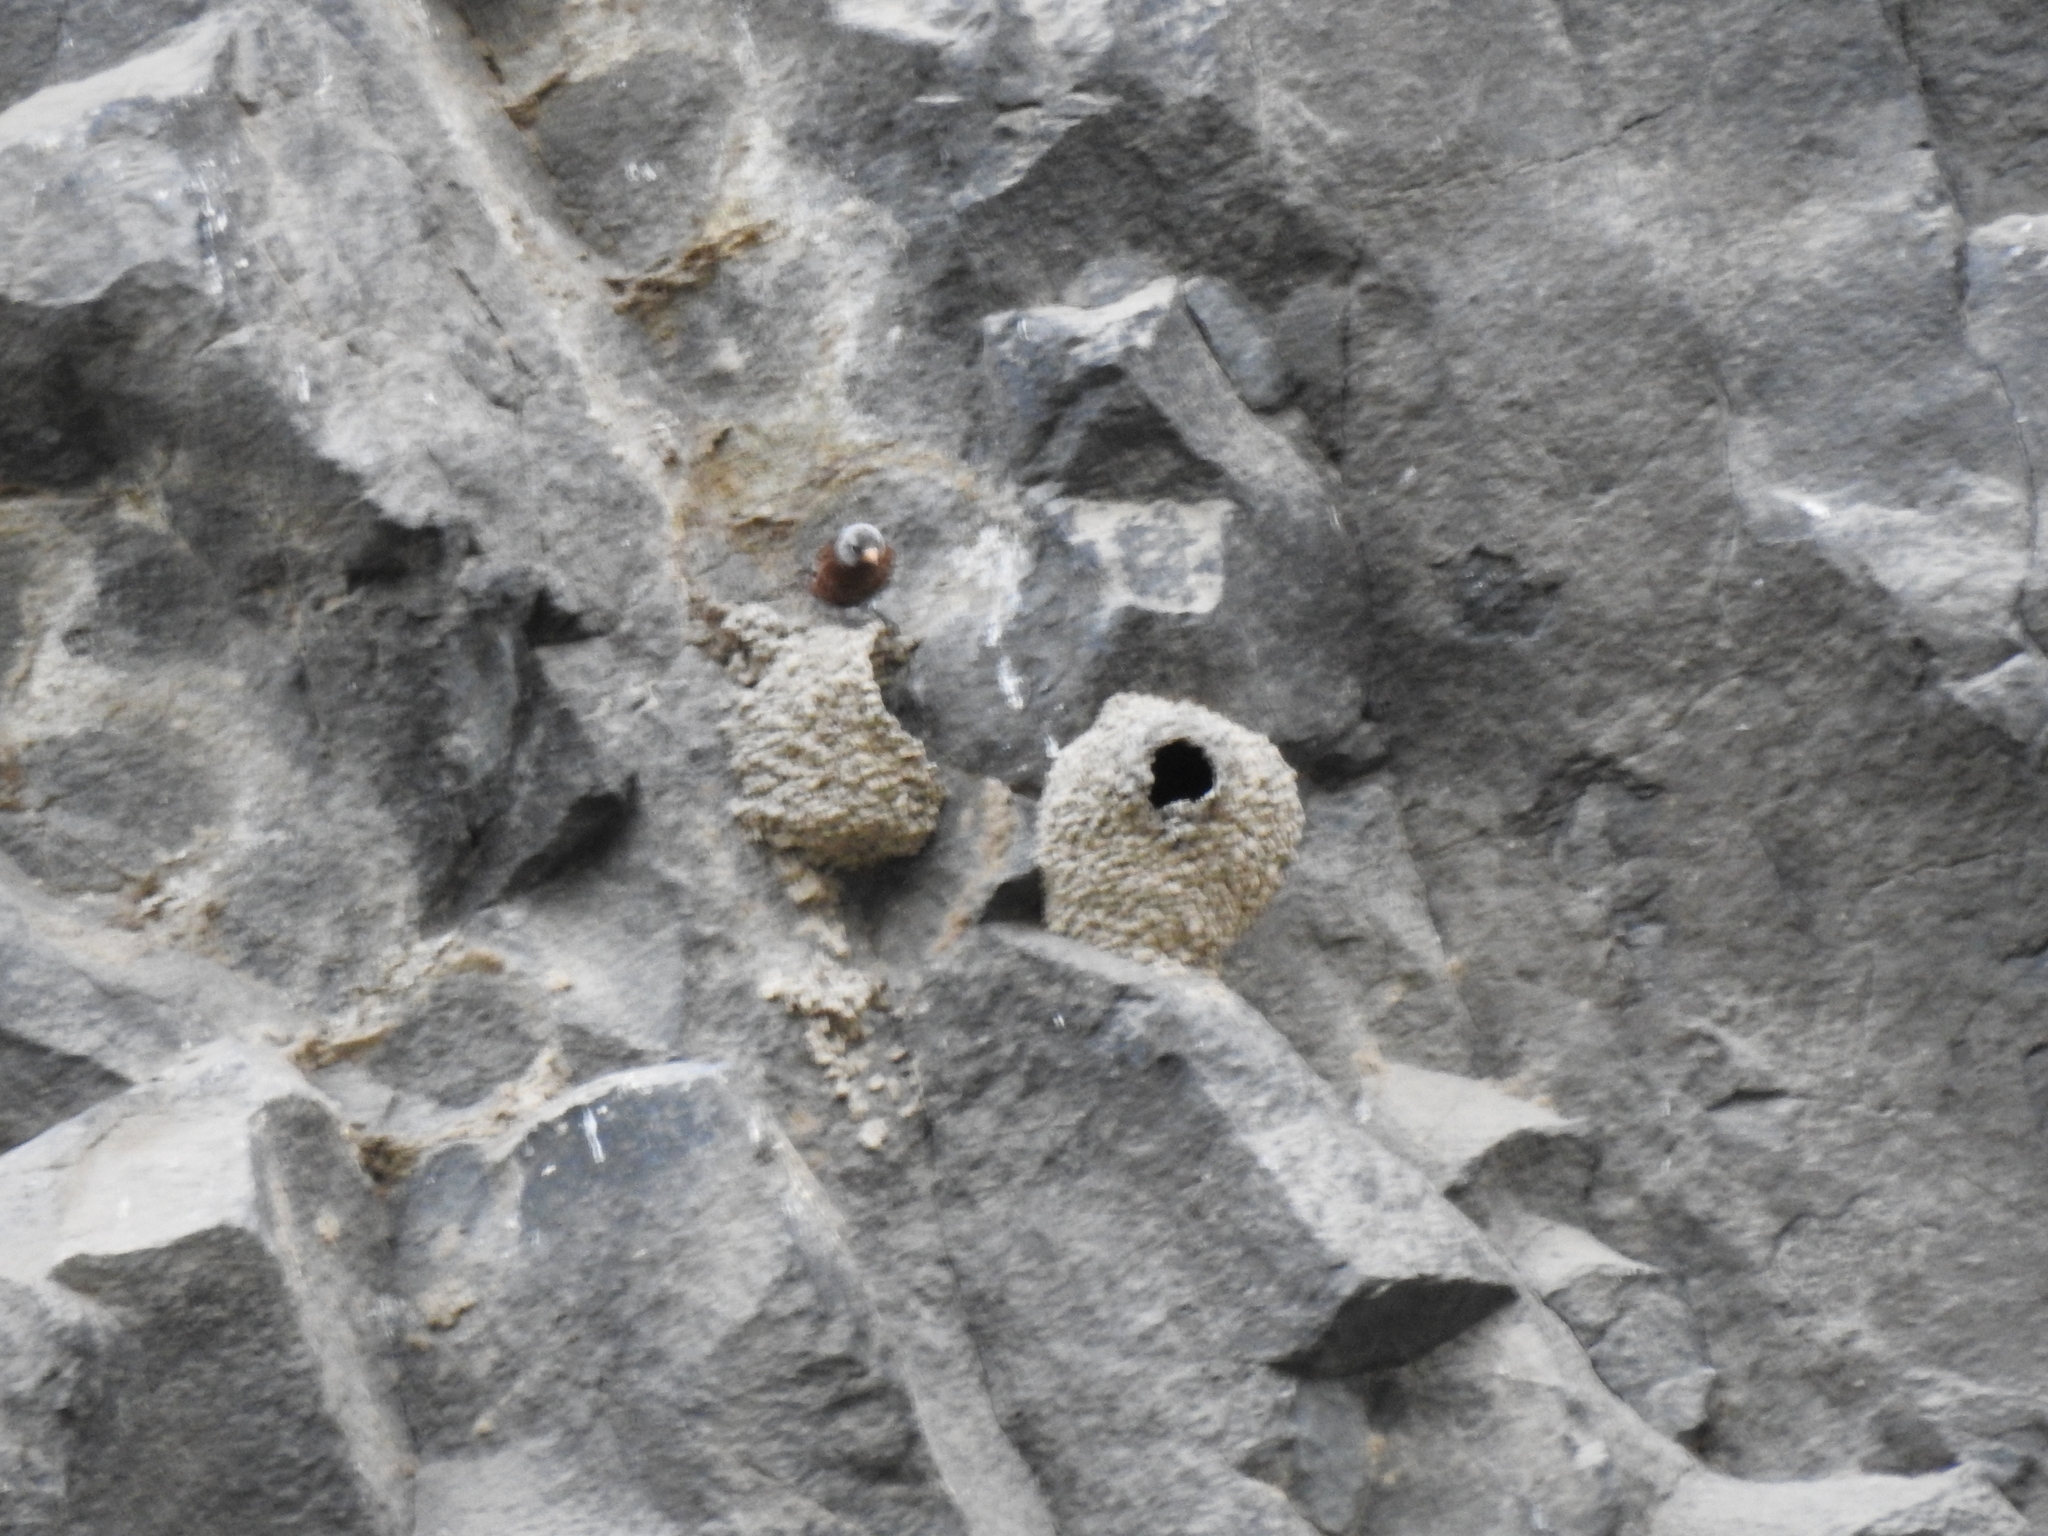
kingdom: Animalia
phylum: Chordata
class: Aves
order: Passeriformes
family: Fringillidae
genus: Leucosticte
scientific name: Leucosticte tephrocotis
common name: Gray-crowned rosy-finch
